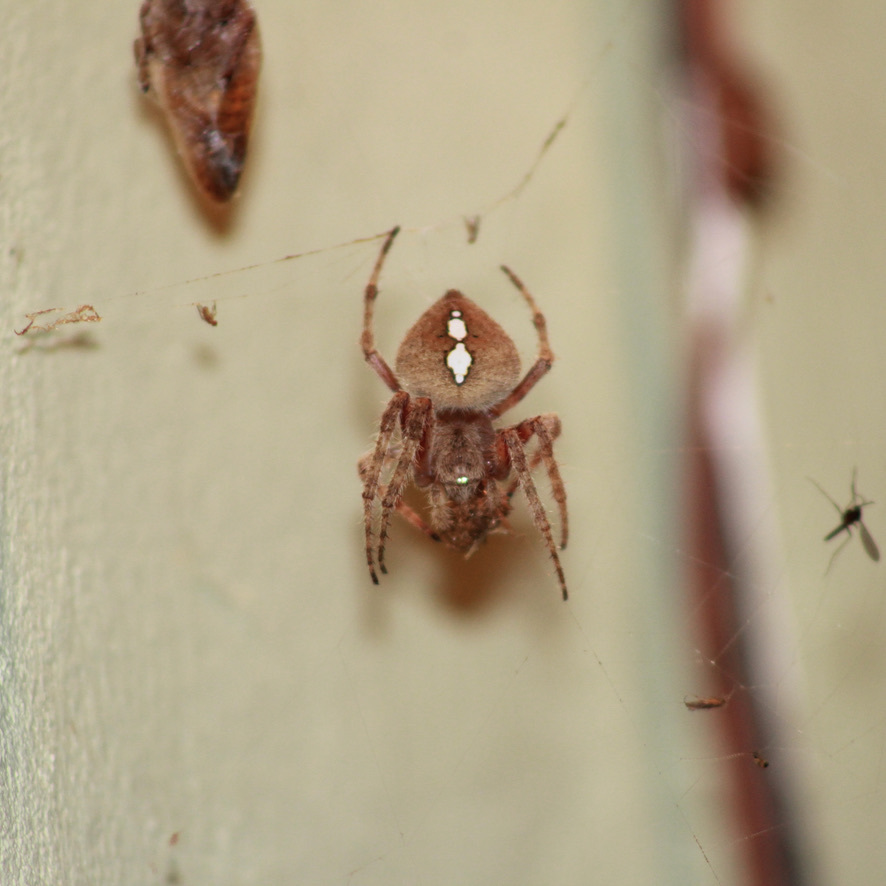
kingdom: Animalia
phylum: Arthropoda
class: Arachnida
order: Araneae
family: Araneidae
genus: Eriophora
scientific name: Eriophora edax
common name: Orb weavers
